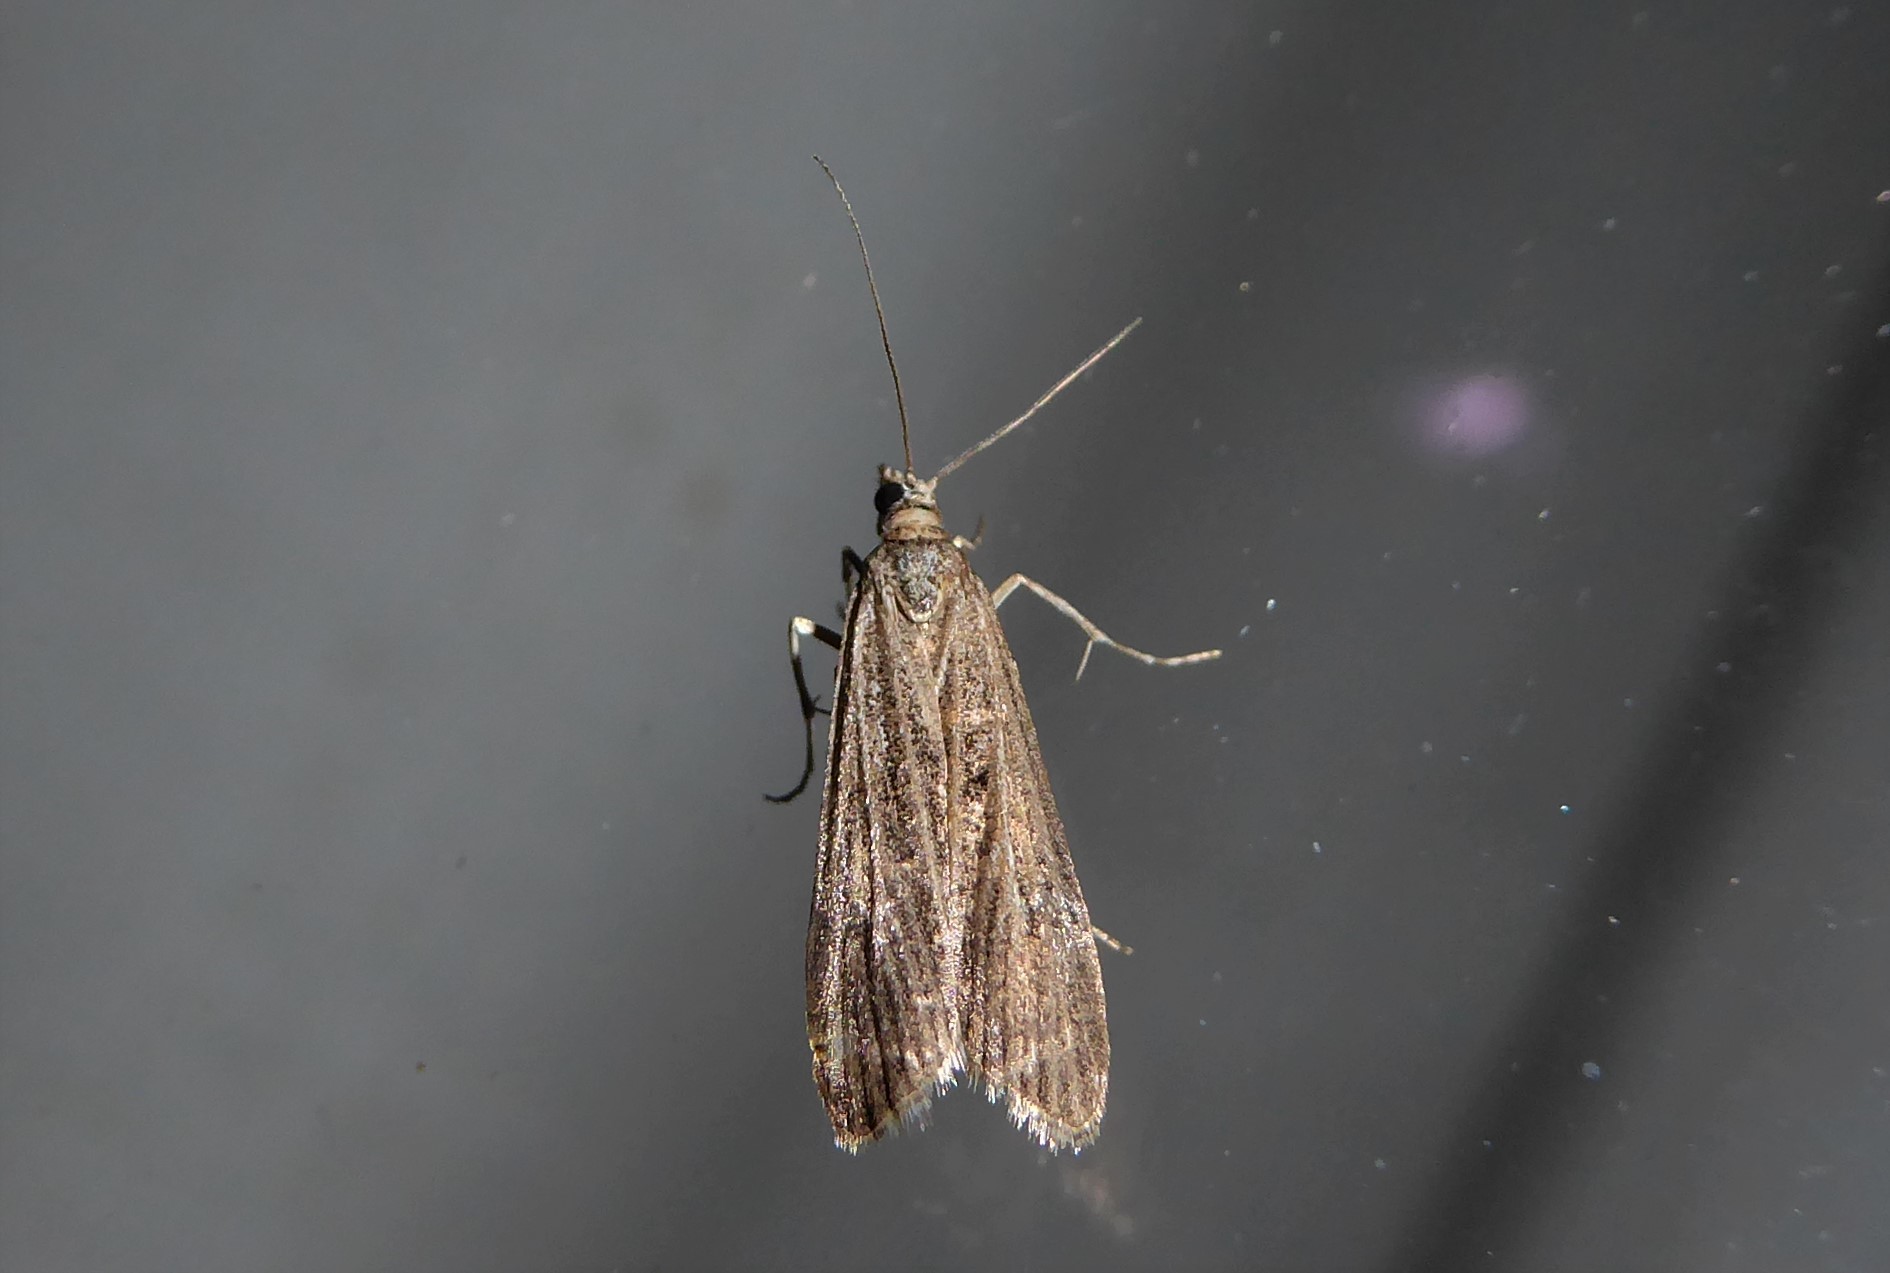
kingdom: Animalia
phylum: Arthropoda
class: Insecta
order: Lepidoptera
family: Crambidae
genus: Eudonia
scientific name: Eudonia atmogramma
